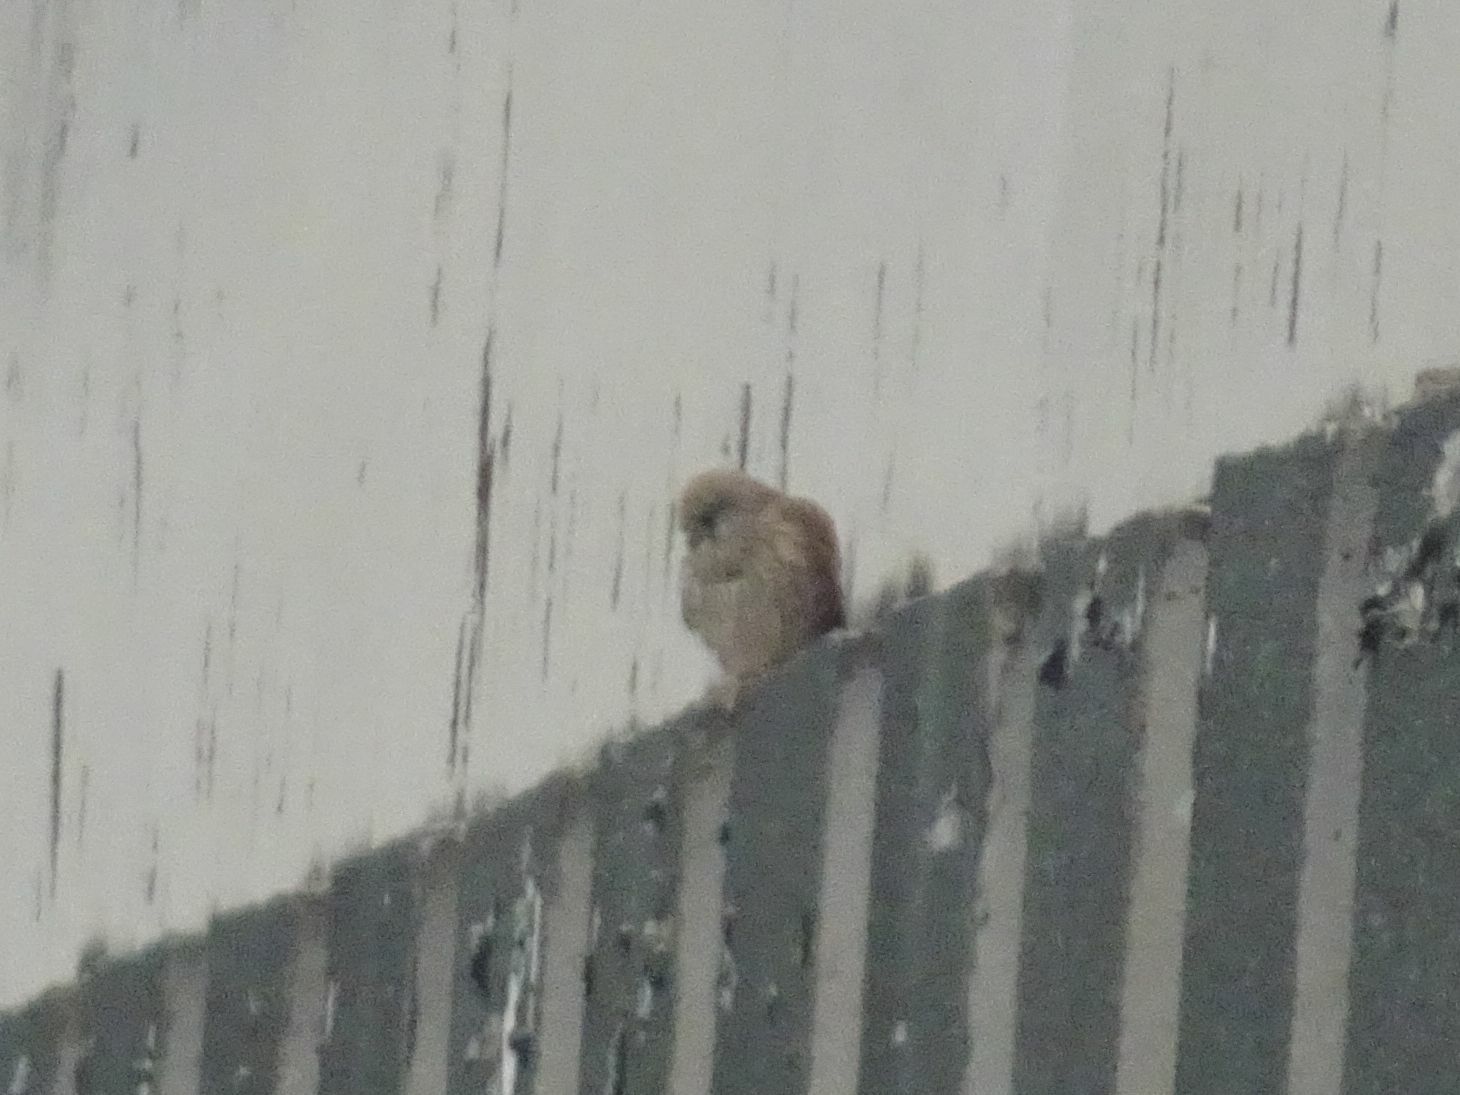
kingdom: Animalia
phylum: Chordata
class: Aves
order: Falconiformes
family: Falconidae
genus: Falco
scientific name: Falco tinnunculus
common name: Common kestrel
